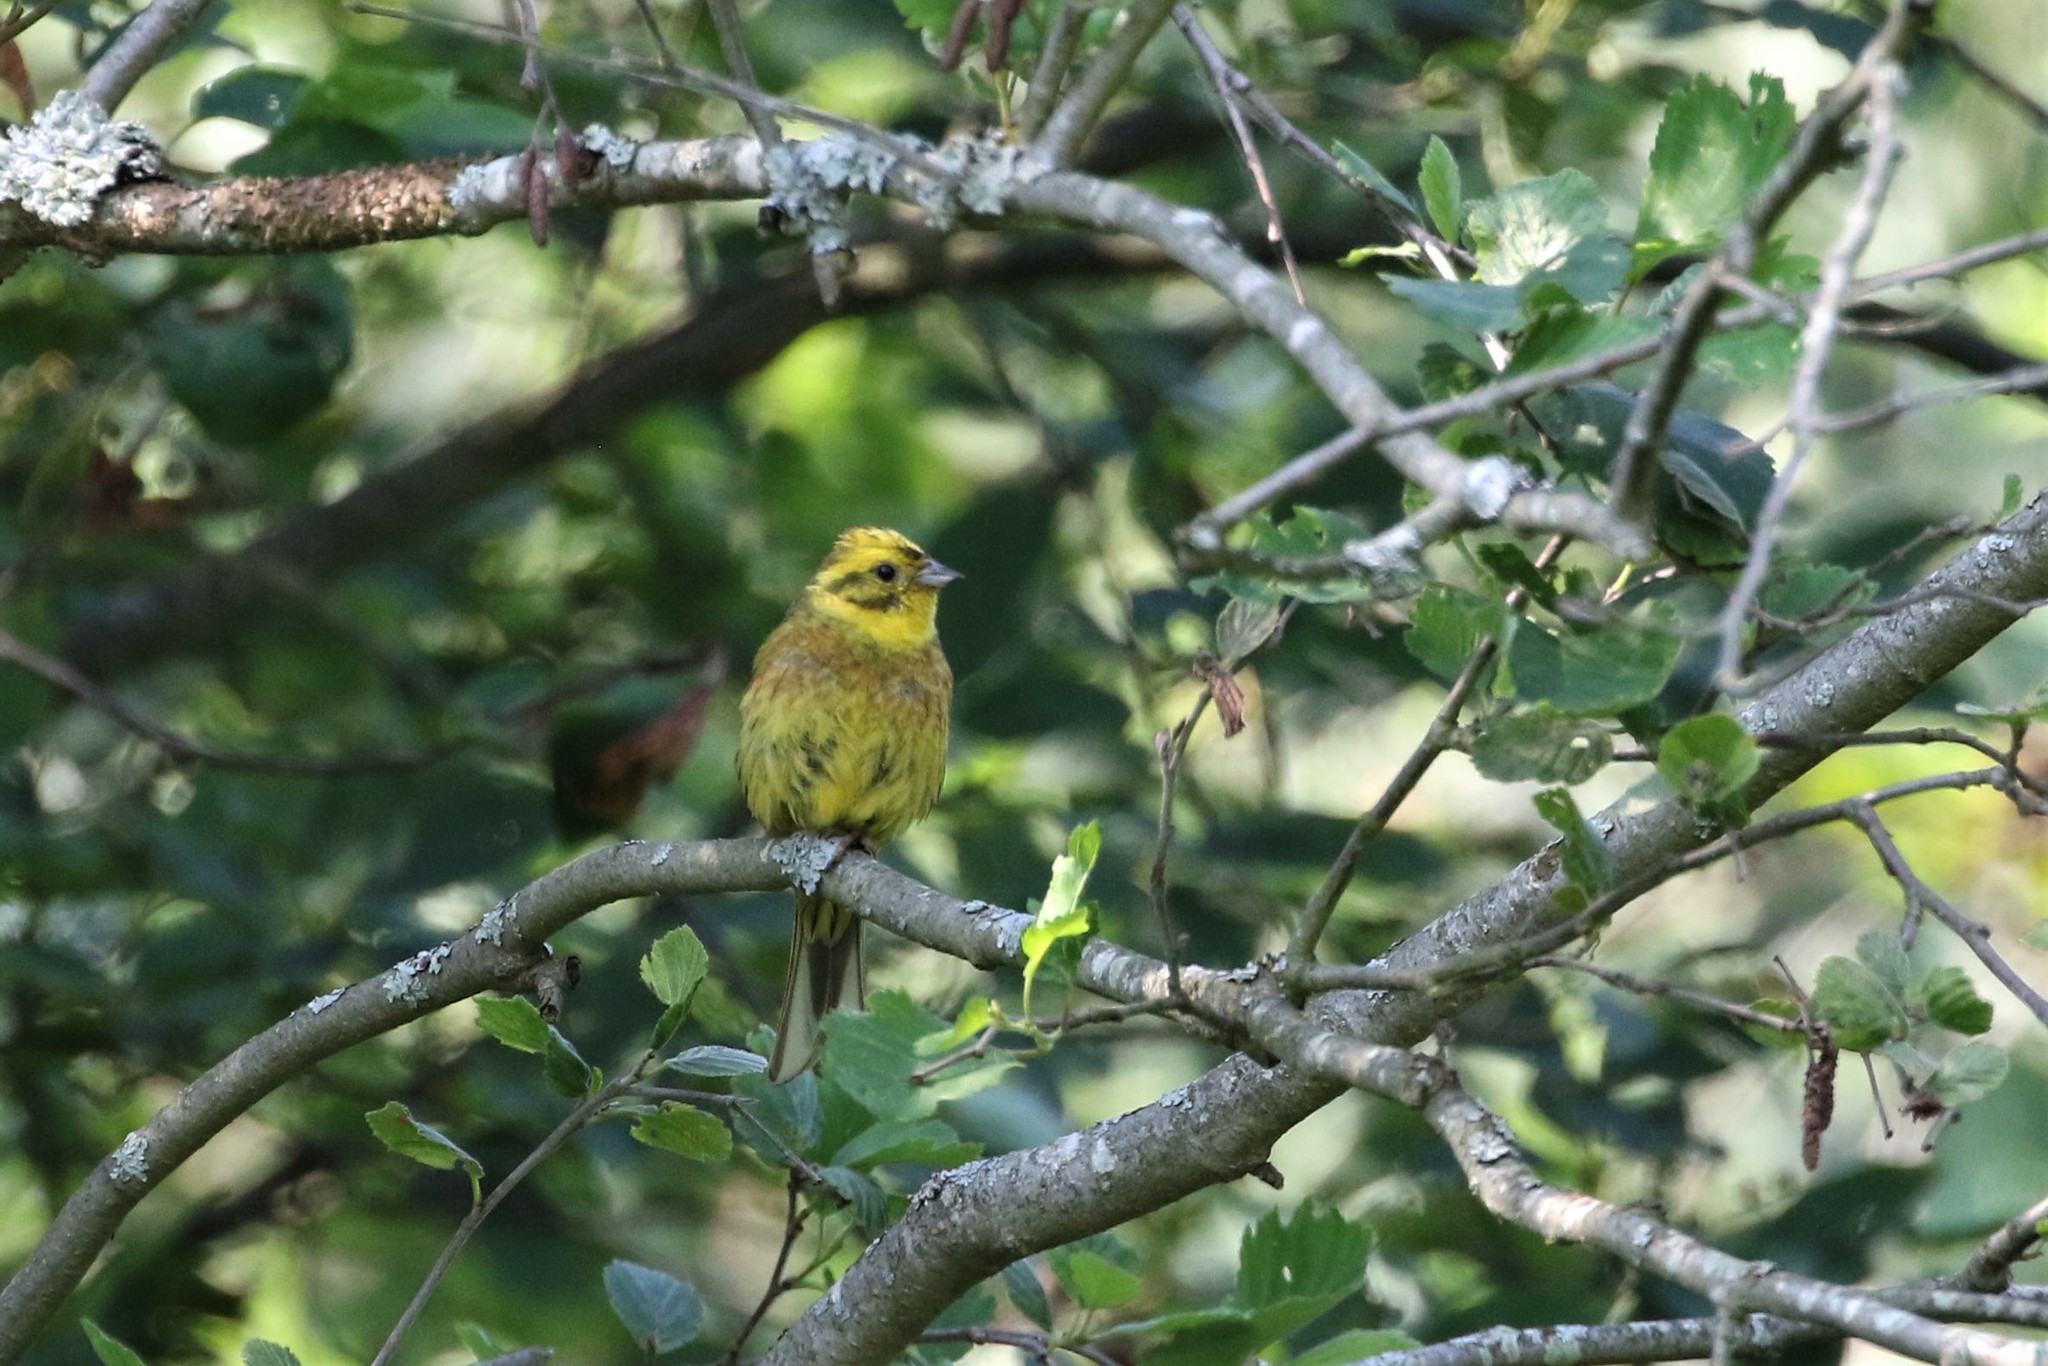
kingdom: Animalia
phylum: Chordata
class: Aves
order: Passeriformes
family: Emberizidae
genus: Emberiza
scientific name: Emberiza citrinella
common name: Yellowhammer
